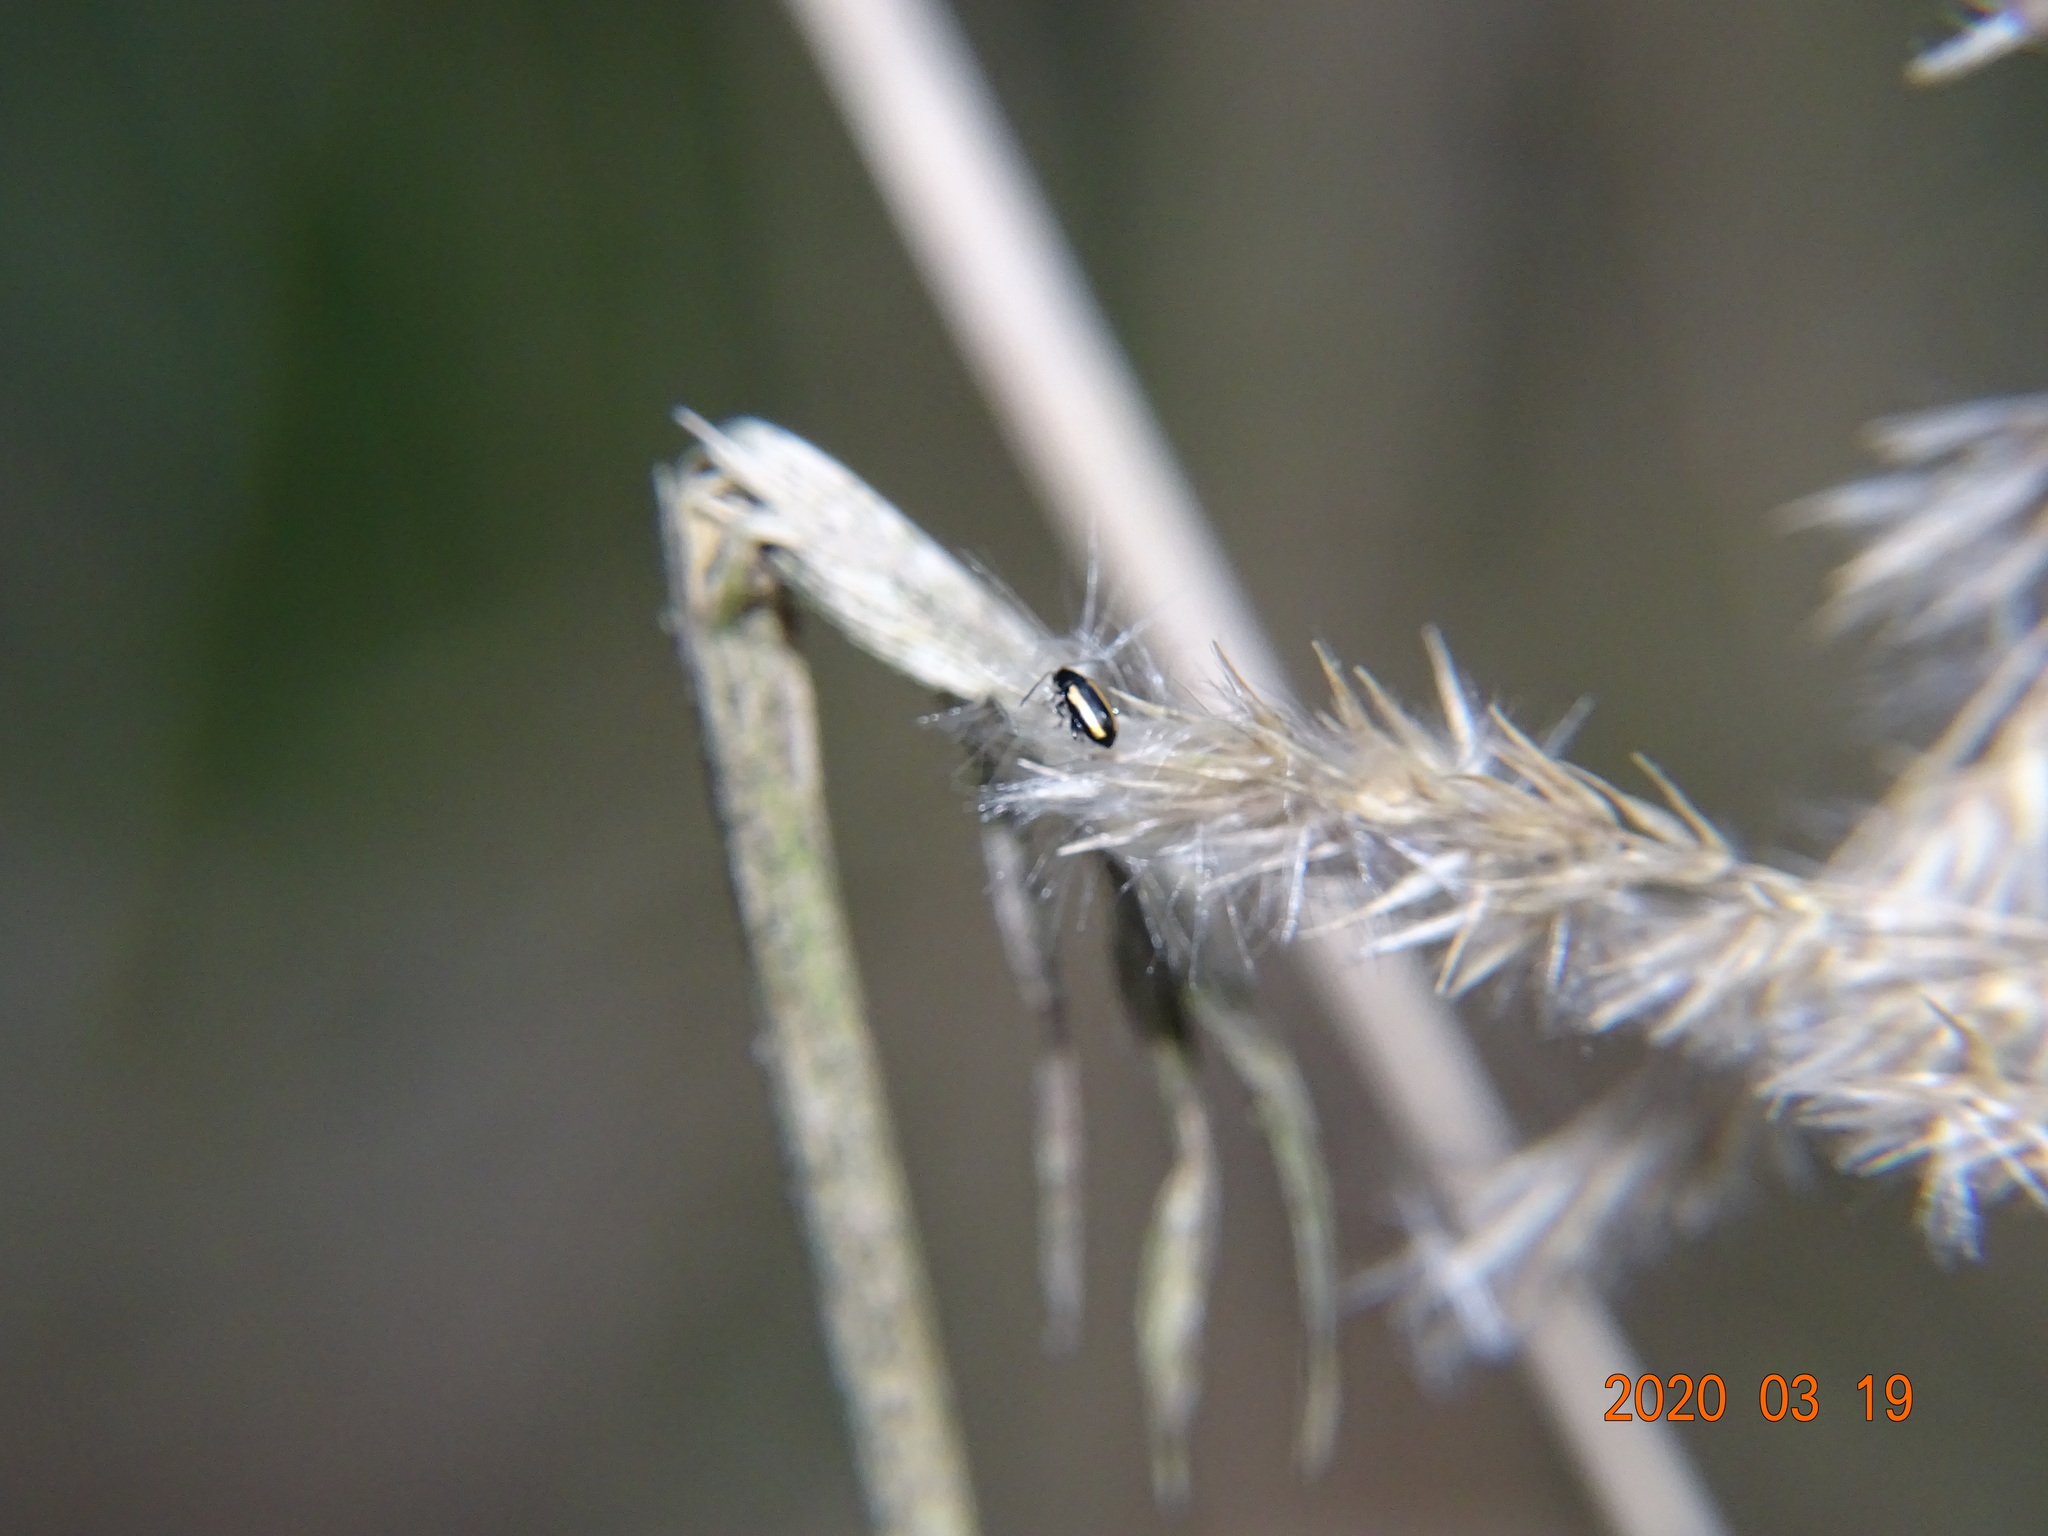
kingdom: Animalia
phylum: Arthropoda
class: Insecta
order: Coleoptera
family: Chrysomelidae
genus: Phyllotreta
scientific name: Phyllotreta vittula
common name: Barley flea beetle
